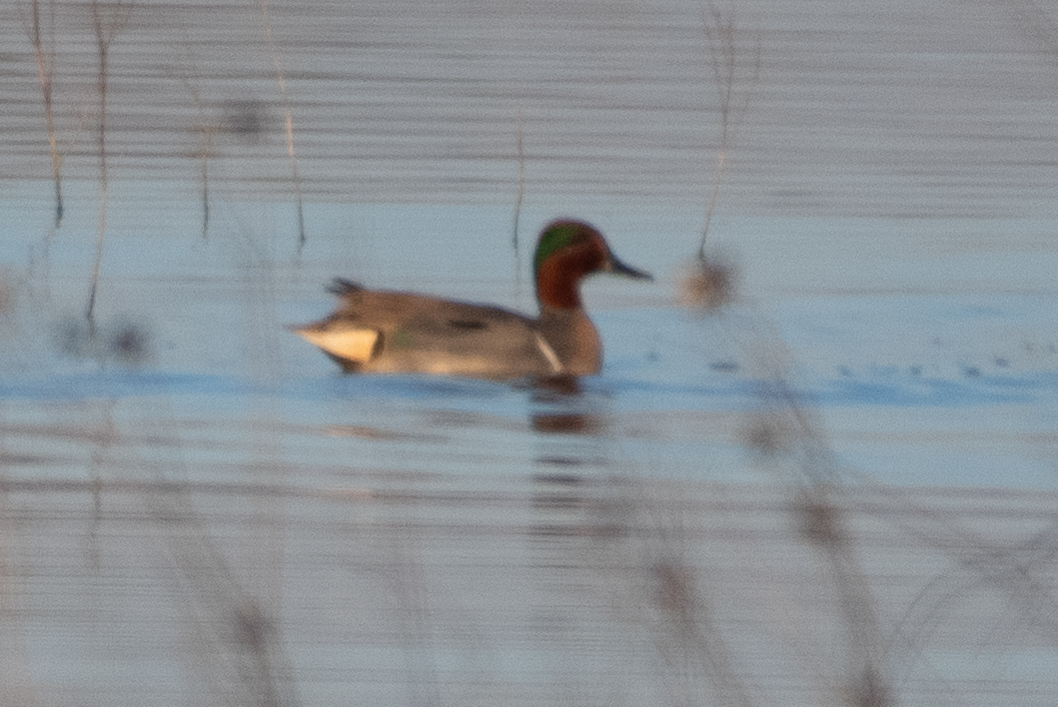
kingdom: Animalia
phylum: Chordata
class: Aves
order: Anseriformes
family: Anatidae
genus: Anas
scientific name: Anas crecca
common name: Eurasian teal
